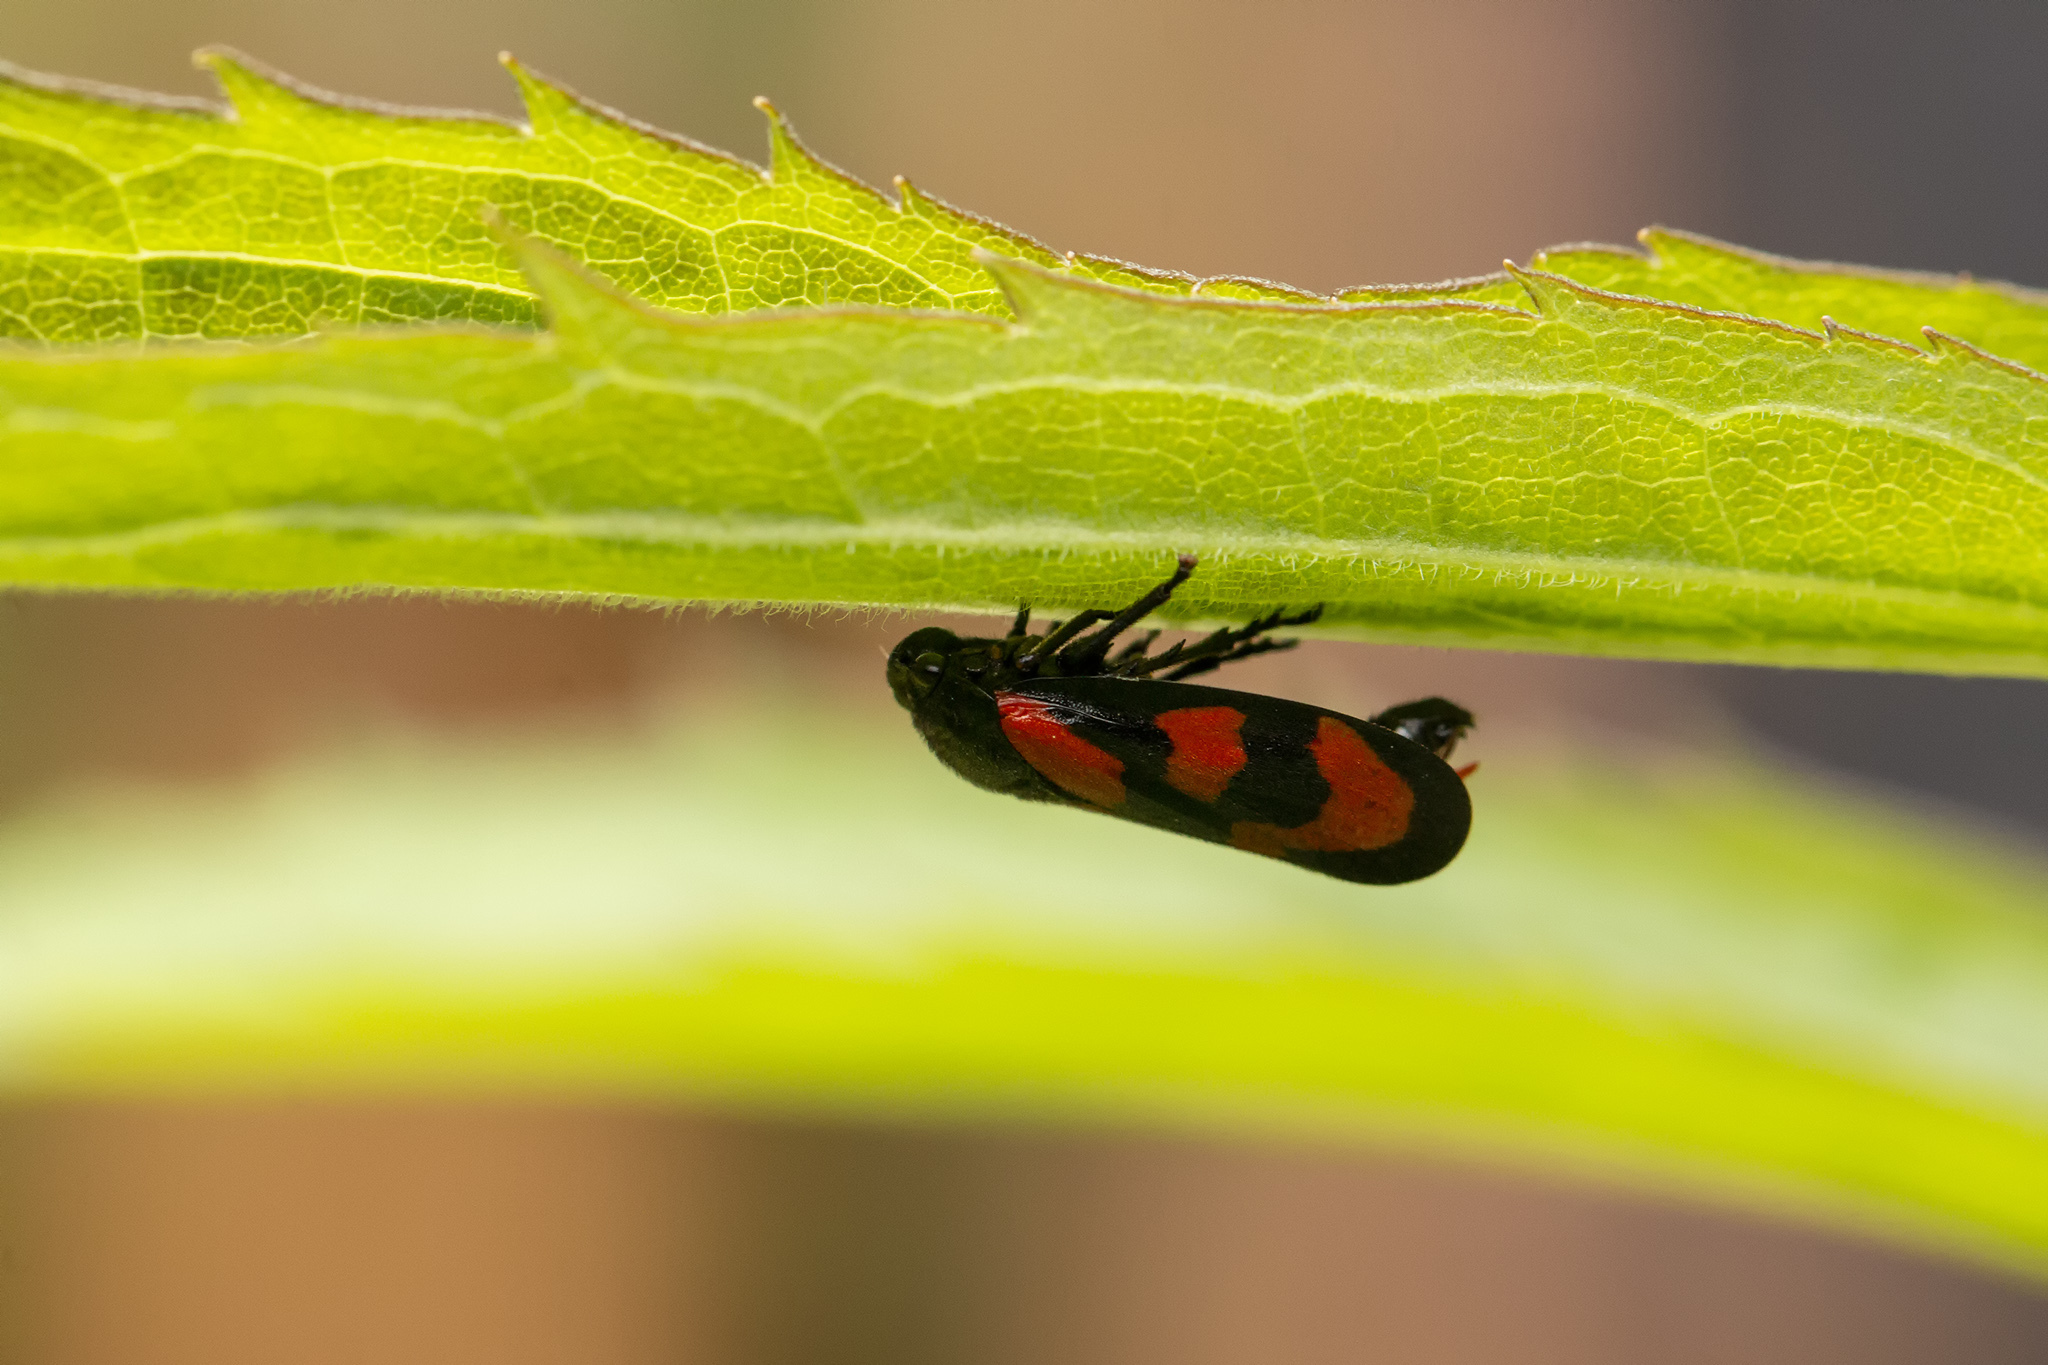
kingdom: Animalia
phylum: Arthropoda
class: Insecta
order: Hemiptera
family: Cercopidae
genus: Cercopis
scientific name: Cercopis vulnerata
